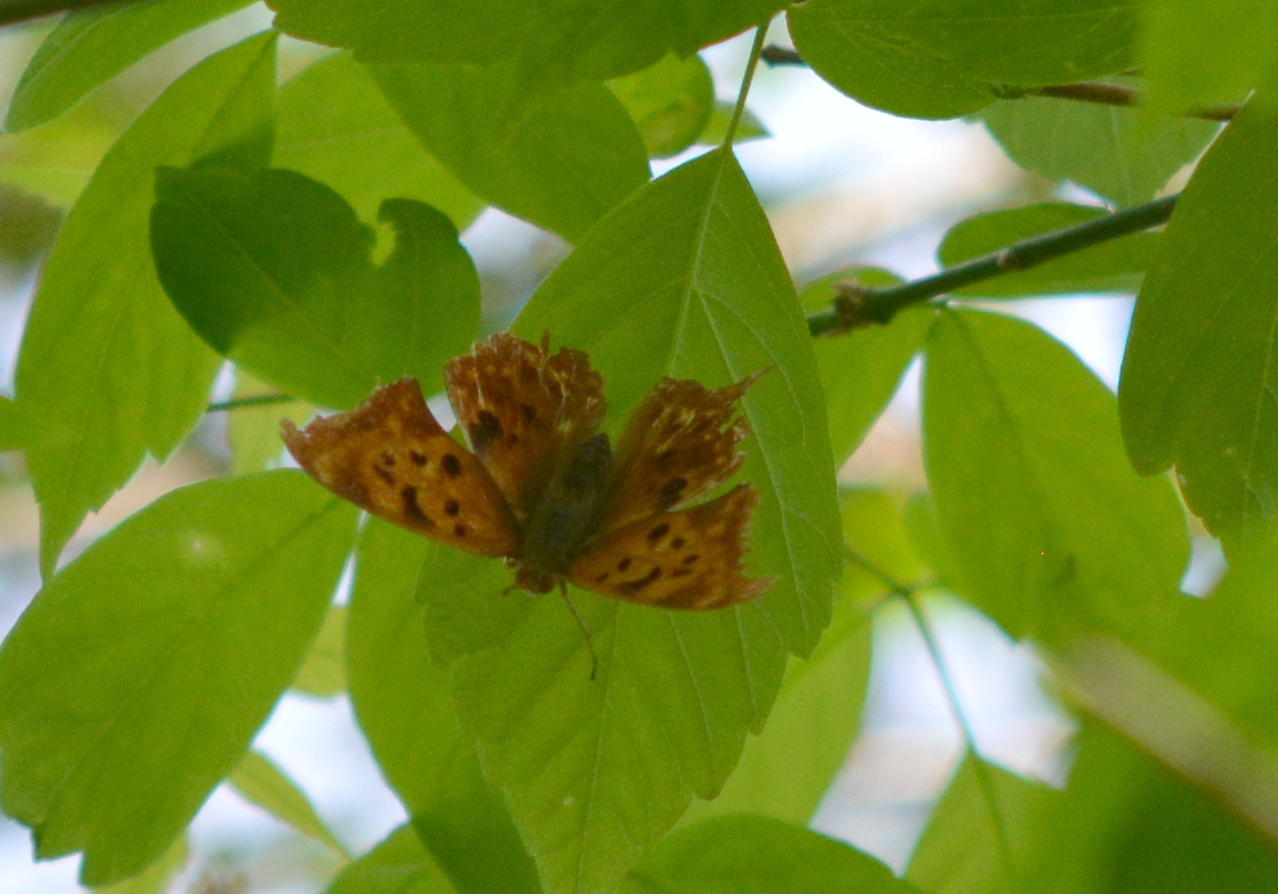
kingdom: Animalia
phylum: Arthropoda
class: Insecta
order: Lepidoptera
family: Nymphalidae
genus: Polygonia
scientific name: Polygonia interrogationis
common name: Question mark
